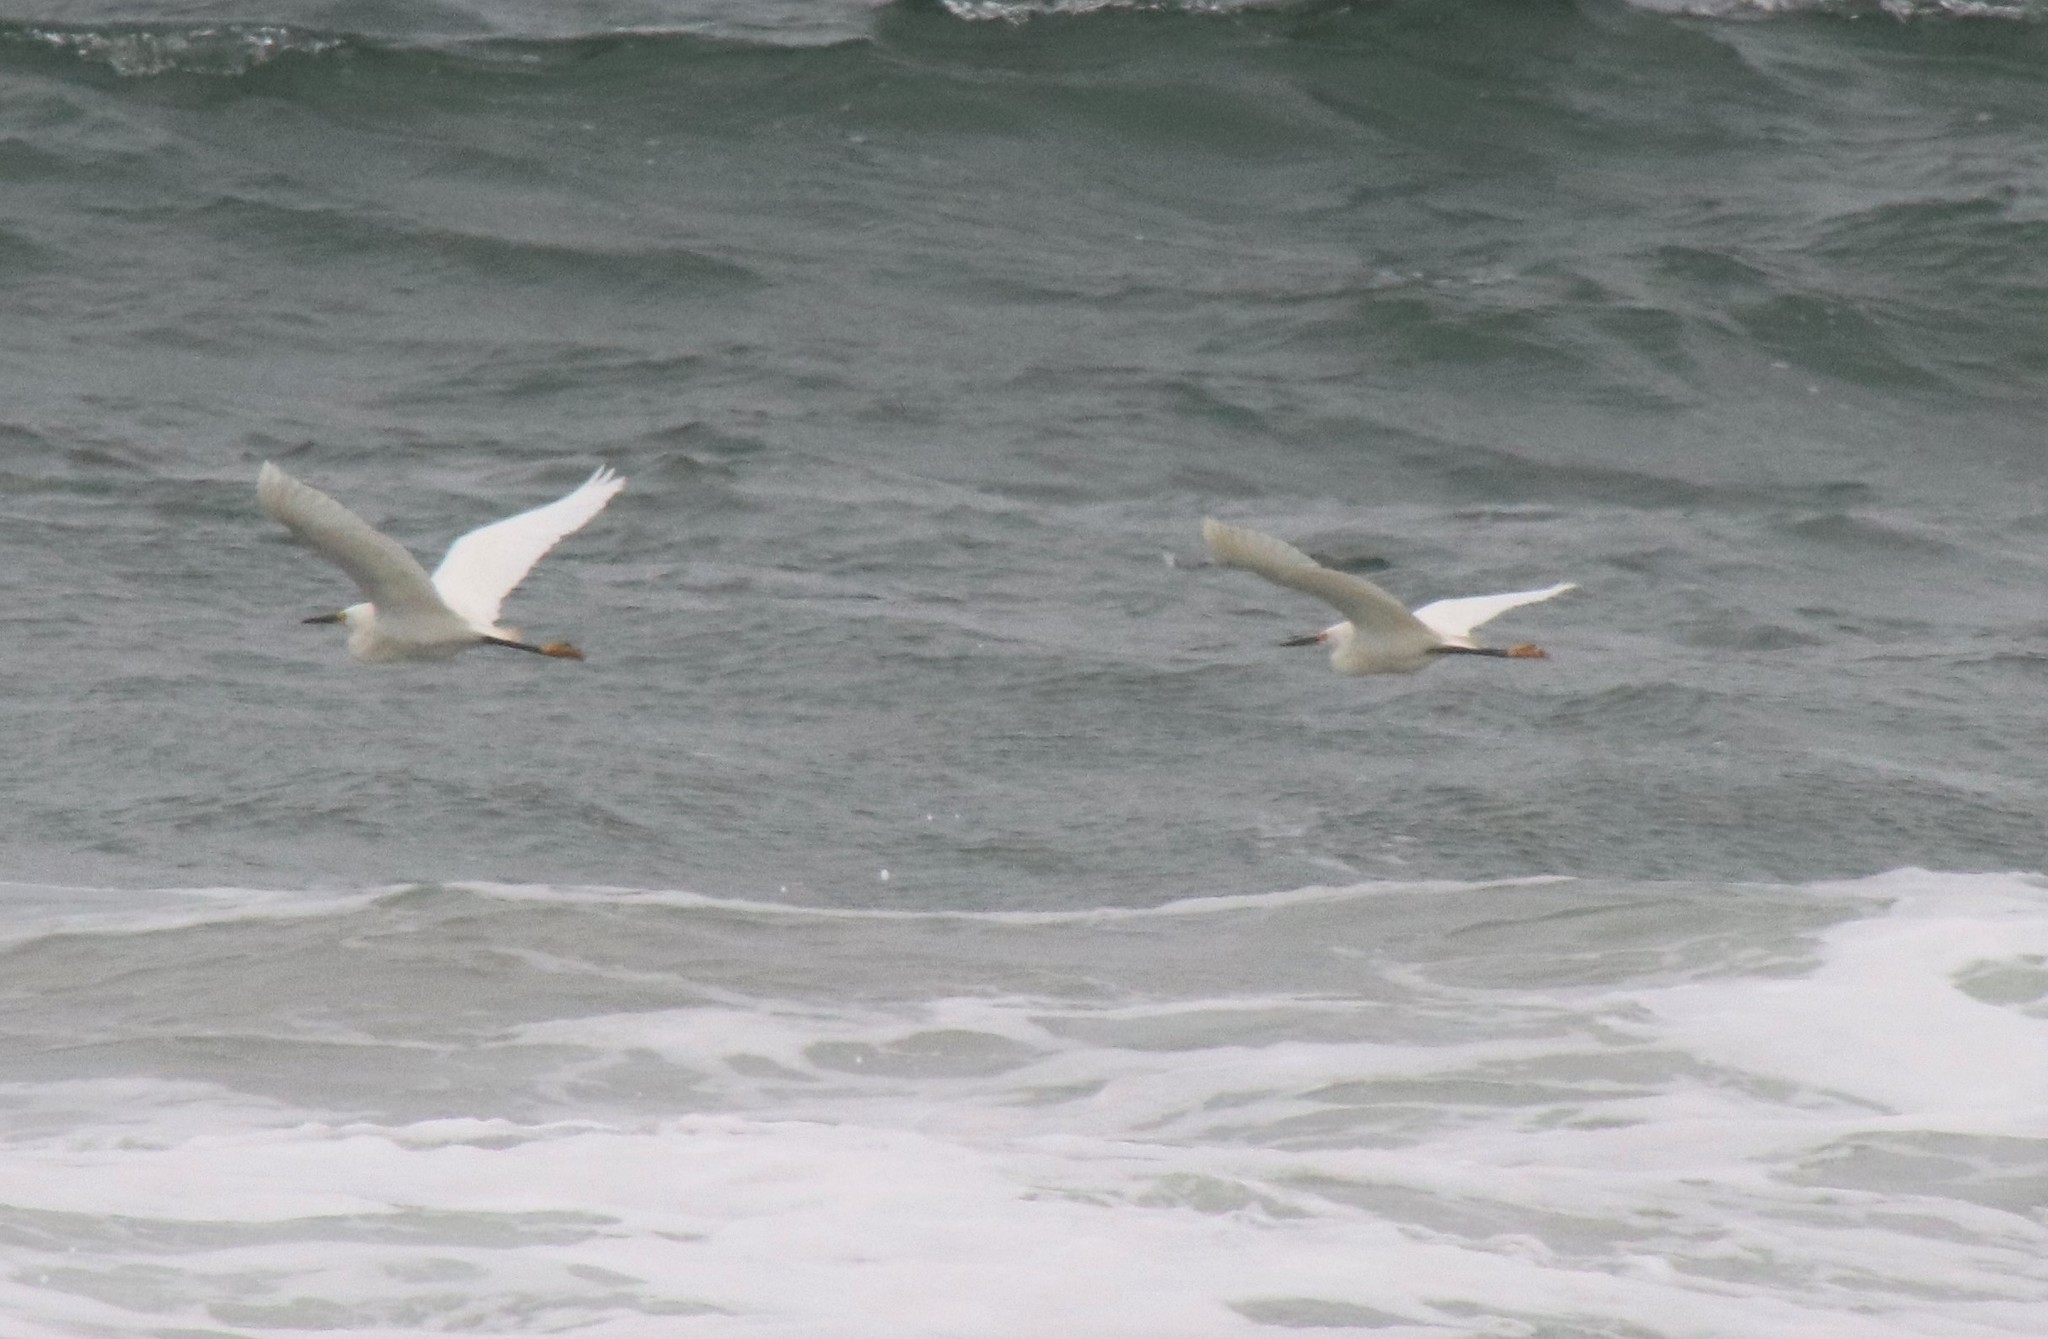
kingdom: Animalia
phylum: Chordata
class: Aves
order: Pelecaniformes
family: Ardeidae
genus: Egretta
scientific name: Egretta thula
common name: Snowy egret
